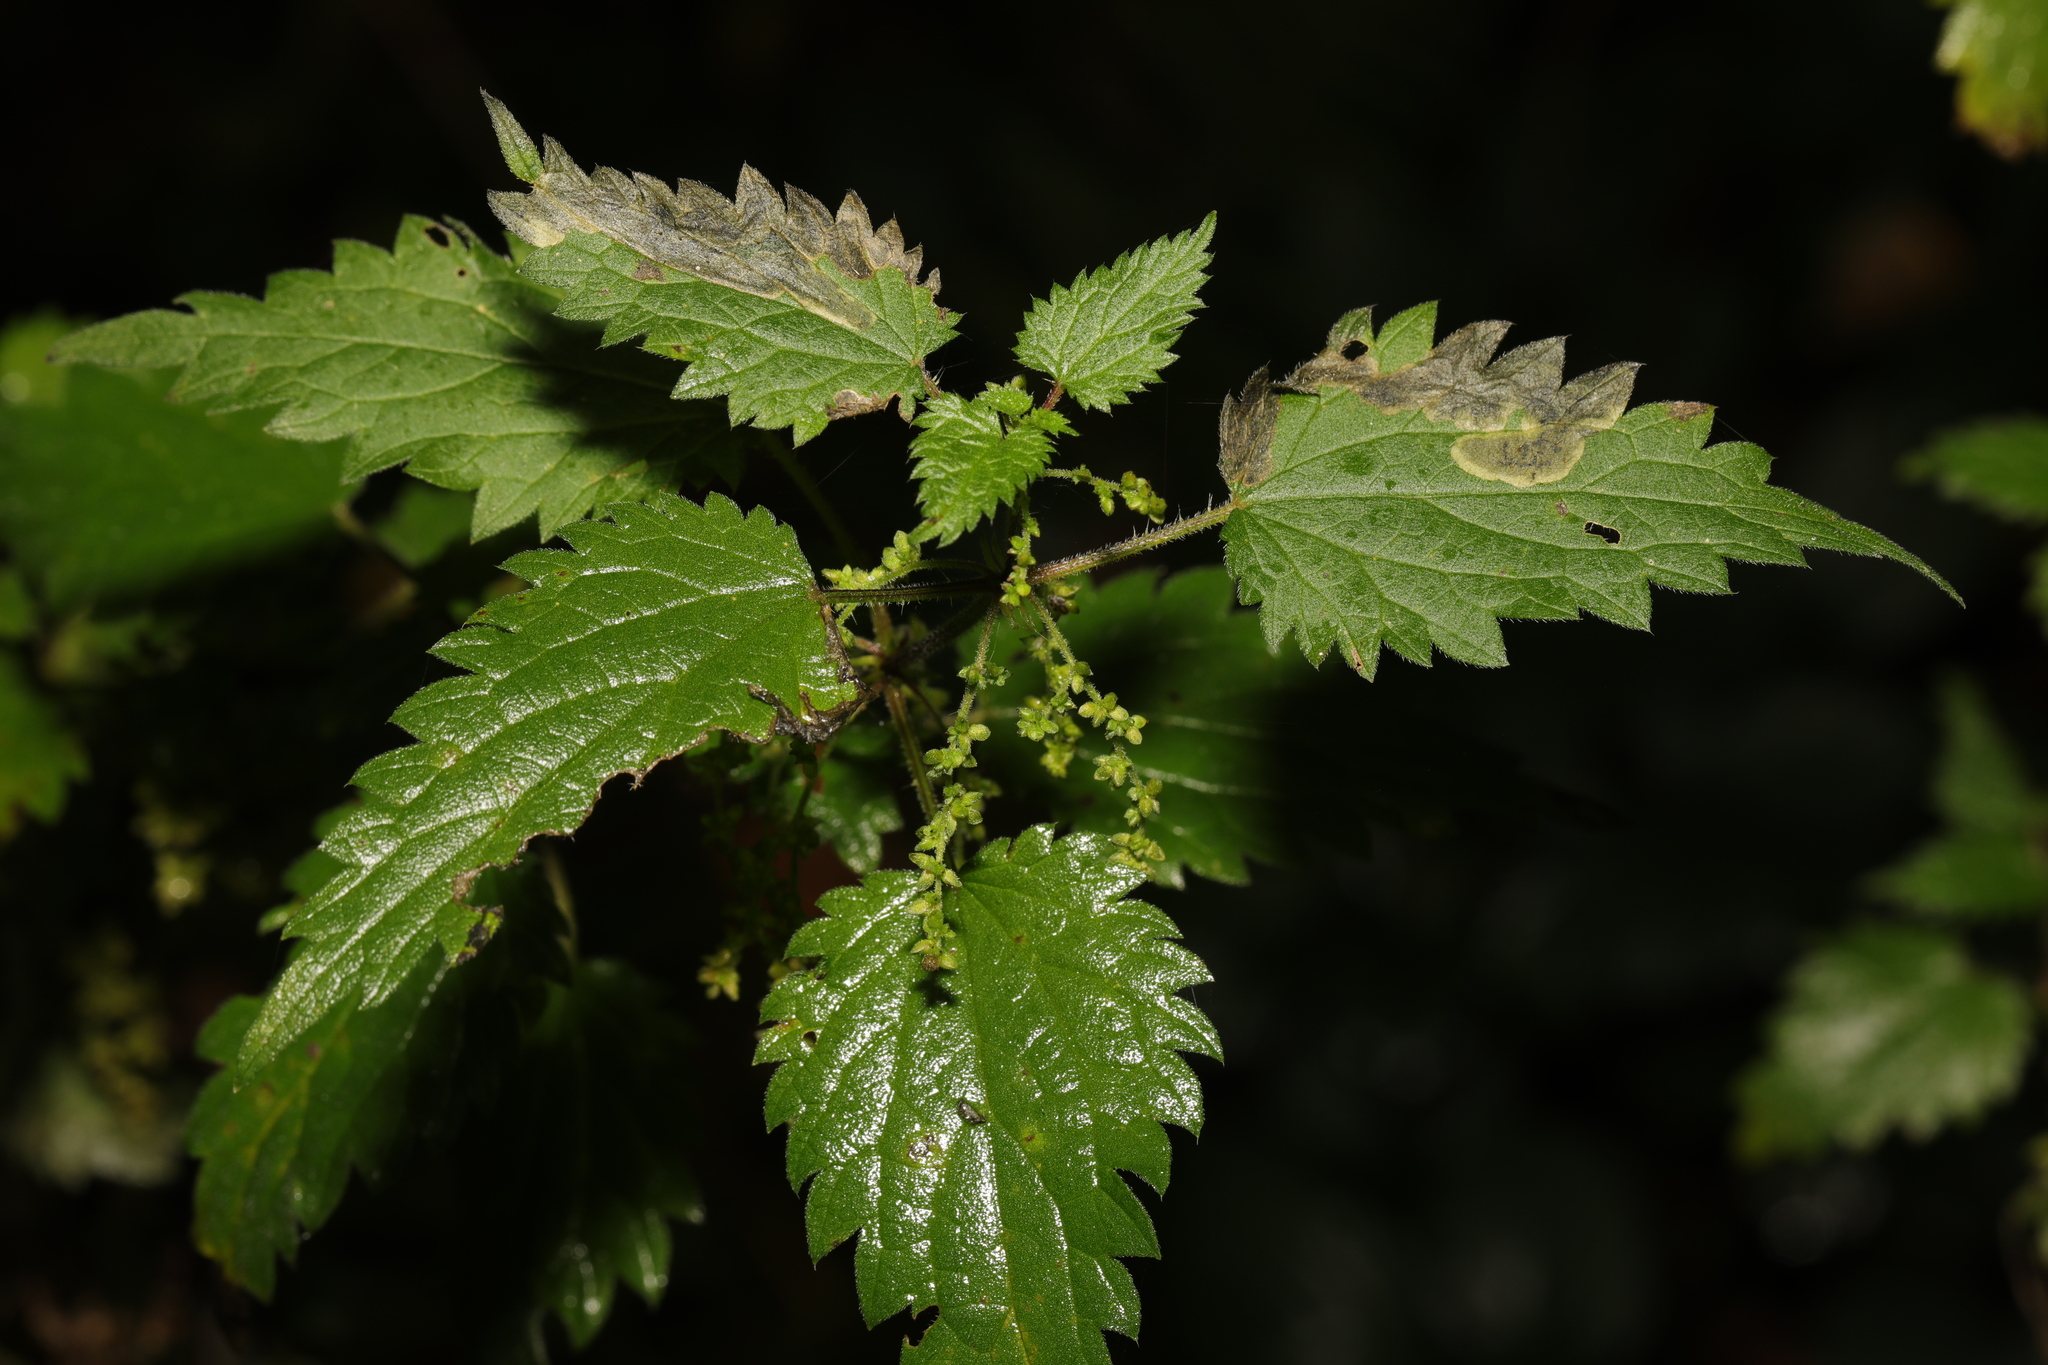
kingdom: Animalia
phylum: Arthropoda
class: Insecta
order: Diptera
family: Agromyzidae
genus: Agromyza
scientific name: Agromyza anthracina
